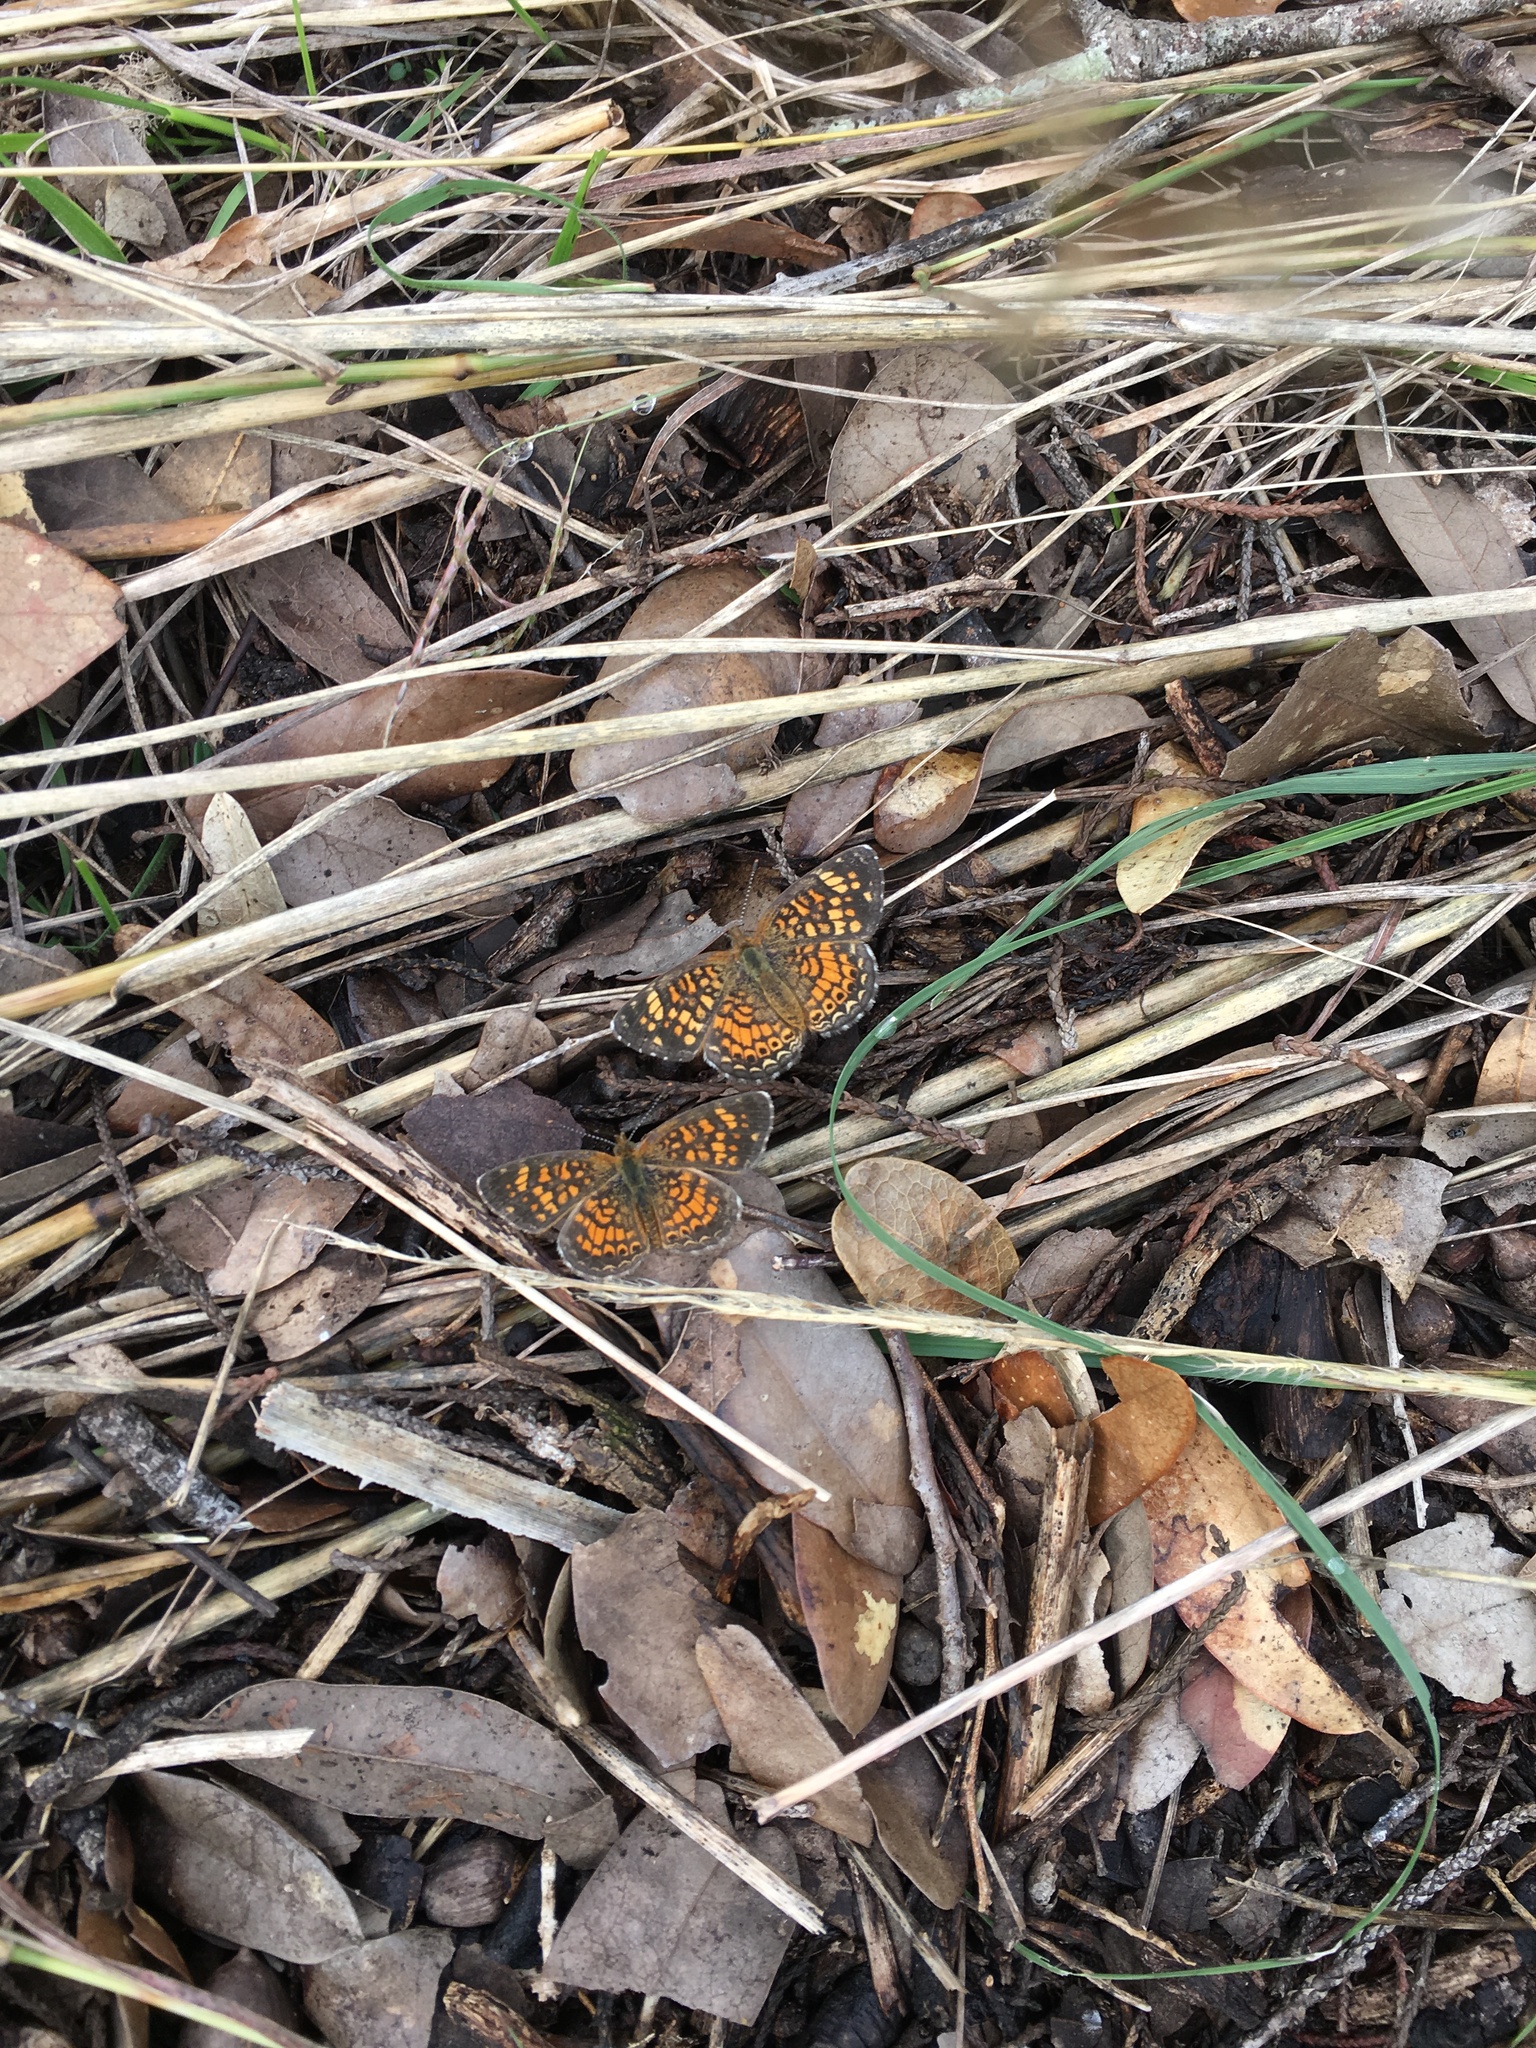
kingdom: Animalia
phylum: Arthropoda
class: Insecta
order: Lepidoptera
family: Nymphalidae
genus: Phyciodes
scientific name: Phyciodes vesta
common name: Vesta crescent
